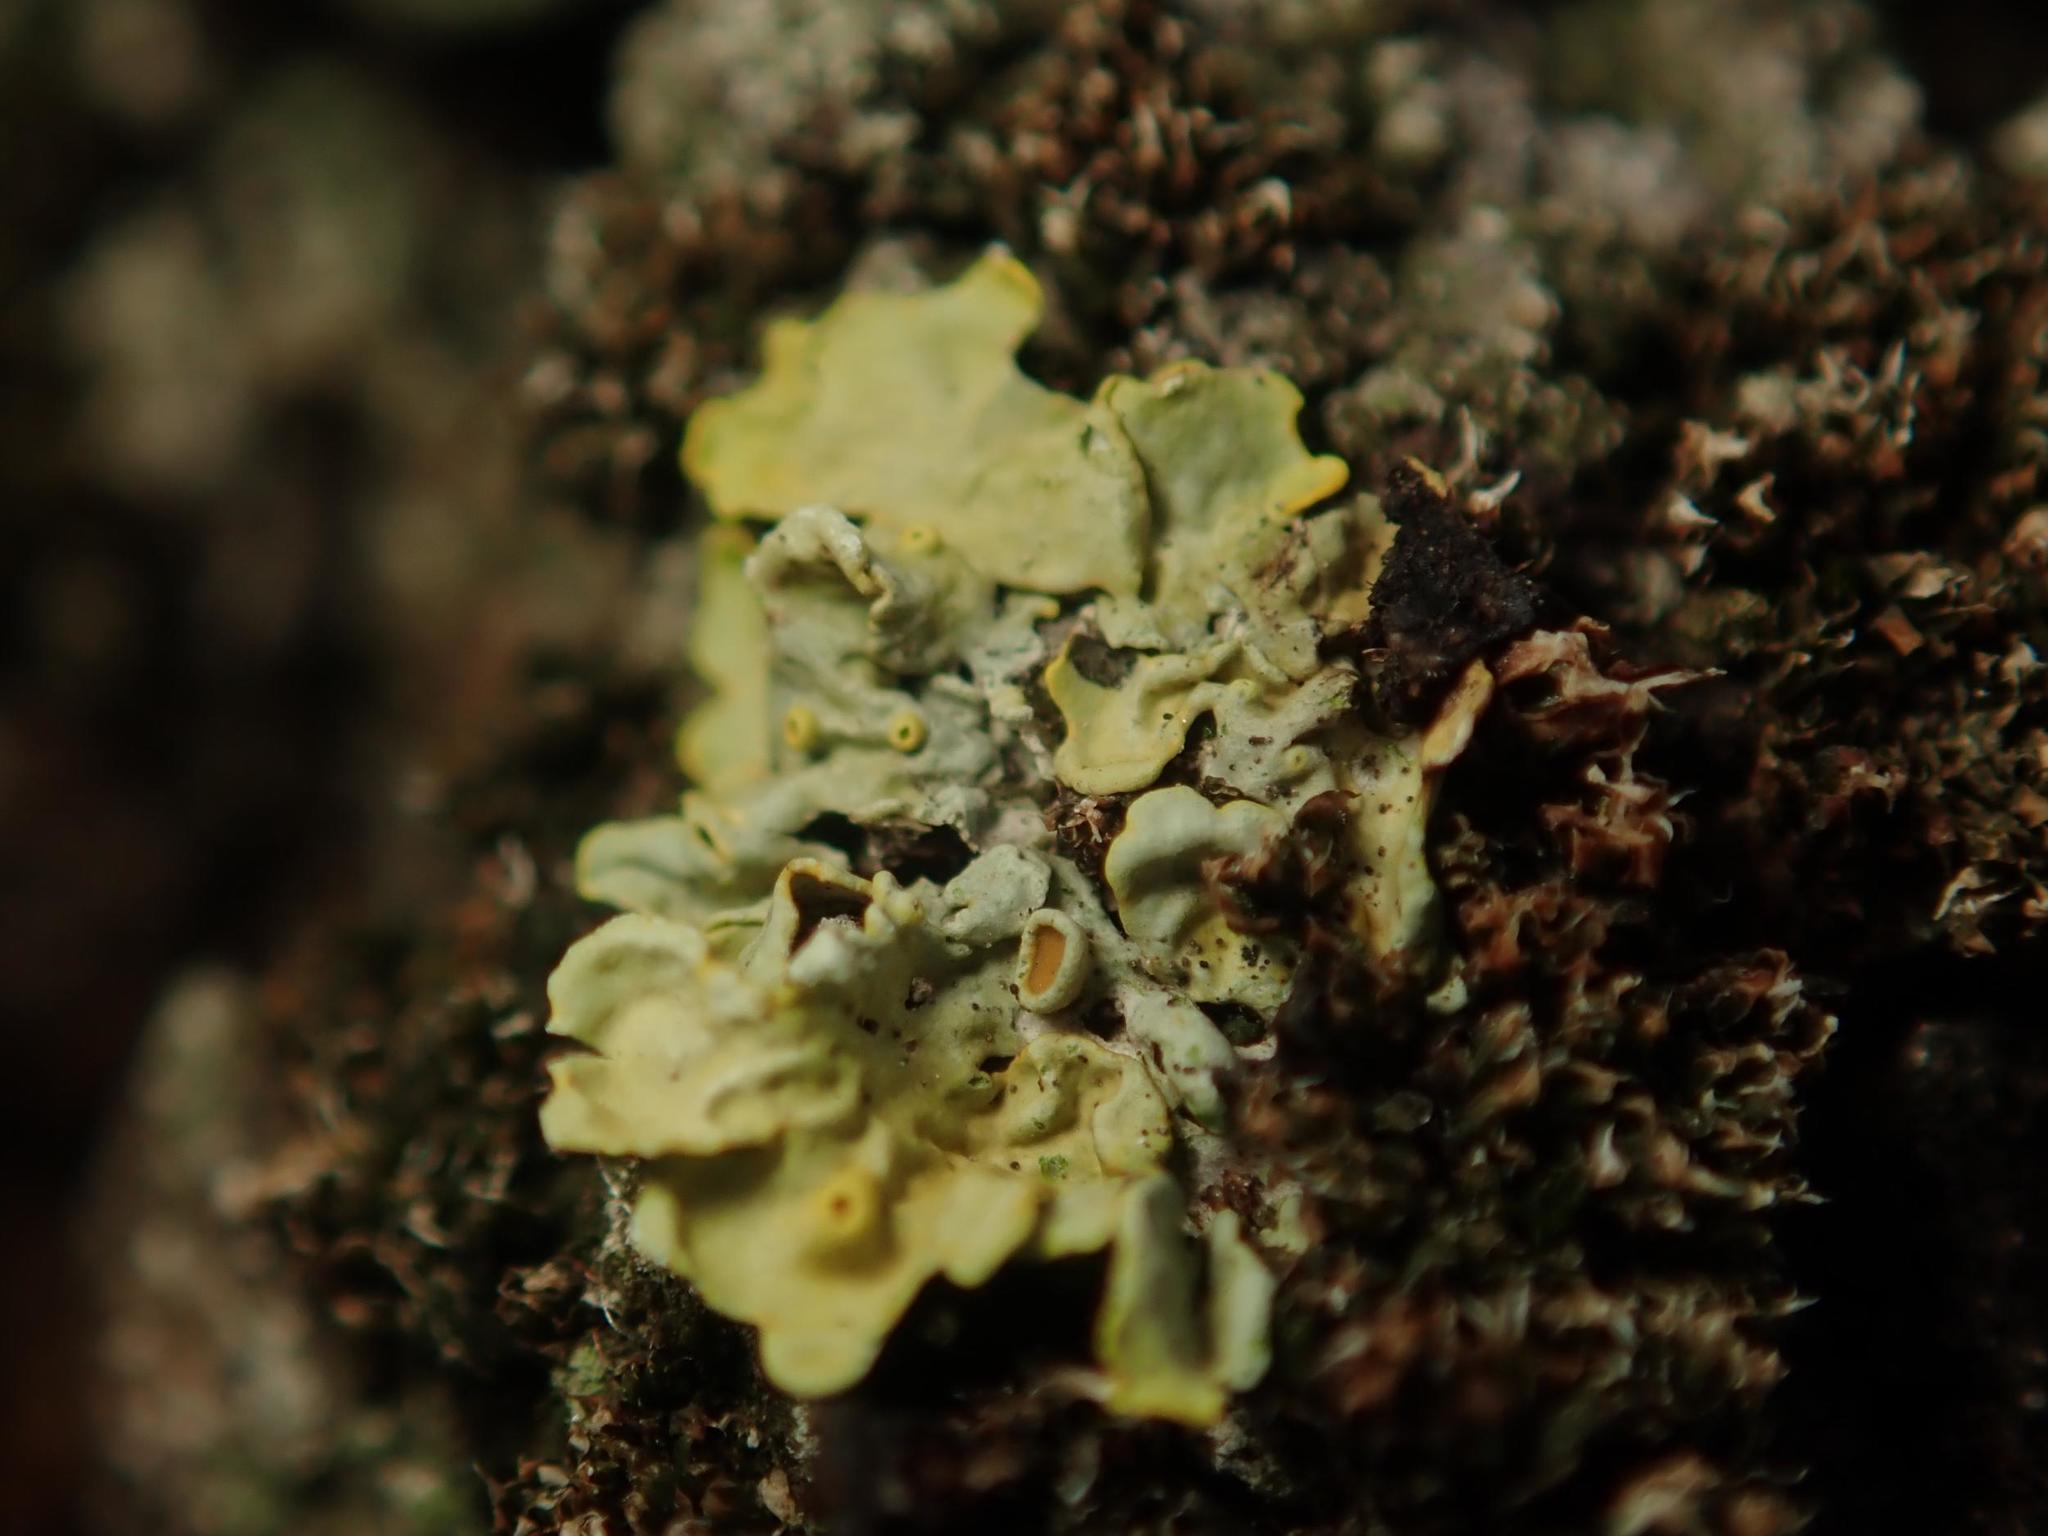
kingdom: Fungi
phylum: Ascomycota
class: Lecanoromycetes
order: Teloschistales
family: Teloschistaceae
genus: Xanthoria
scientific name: Xanthoria parietina
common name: Common orange lichen
